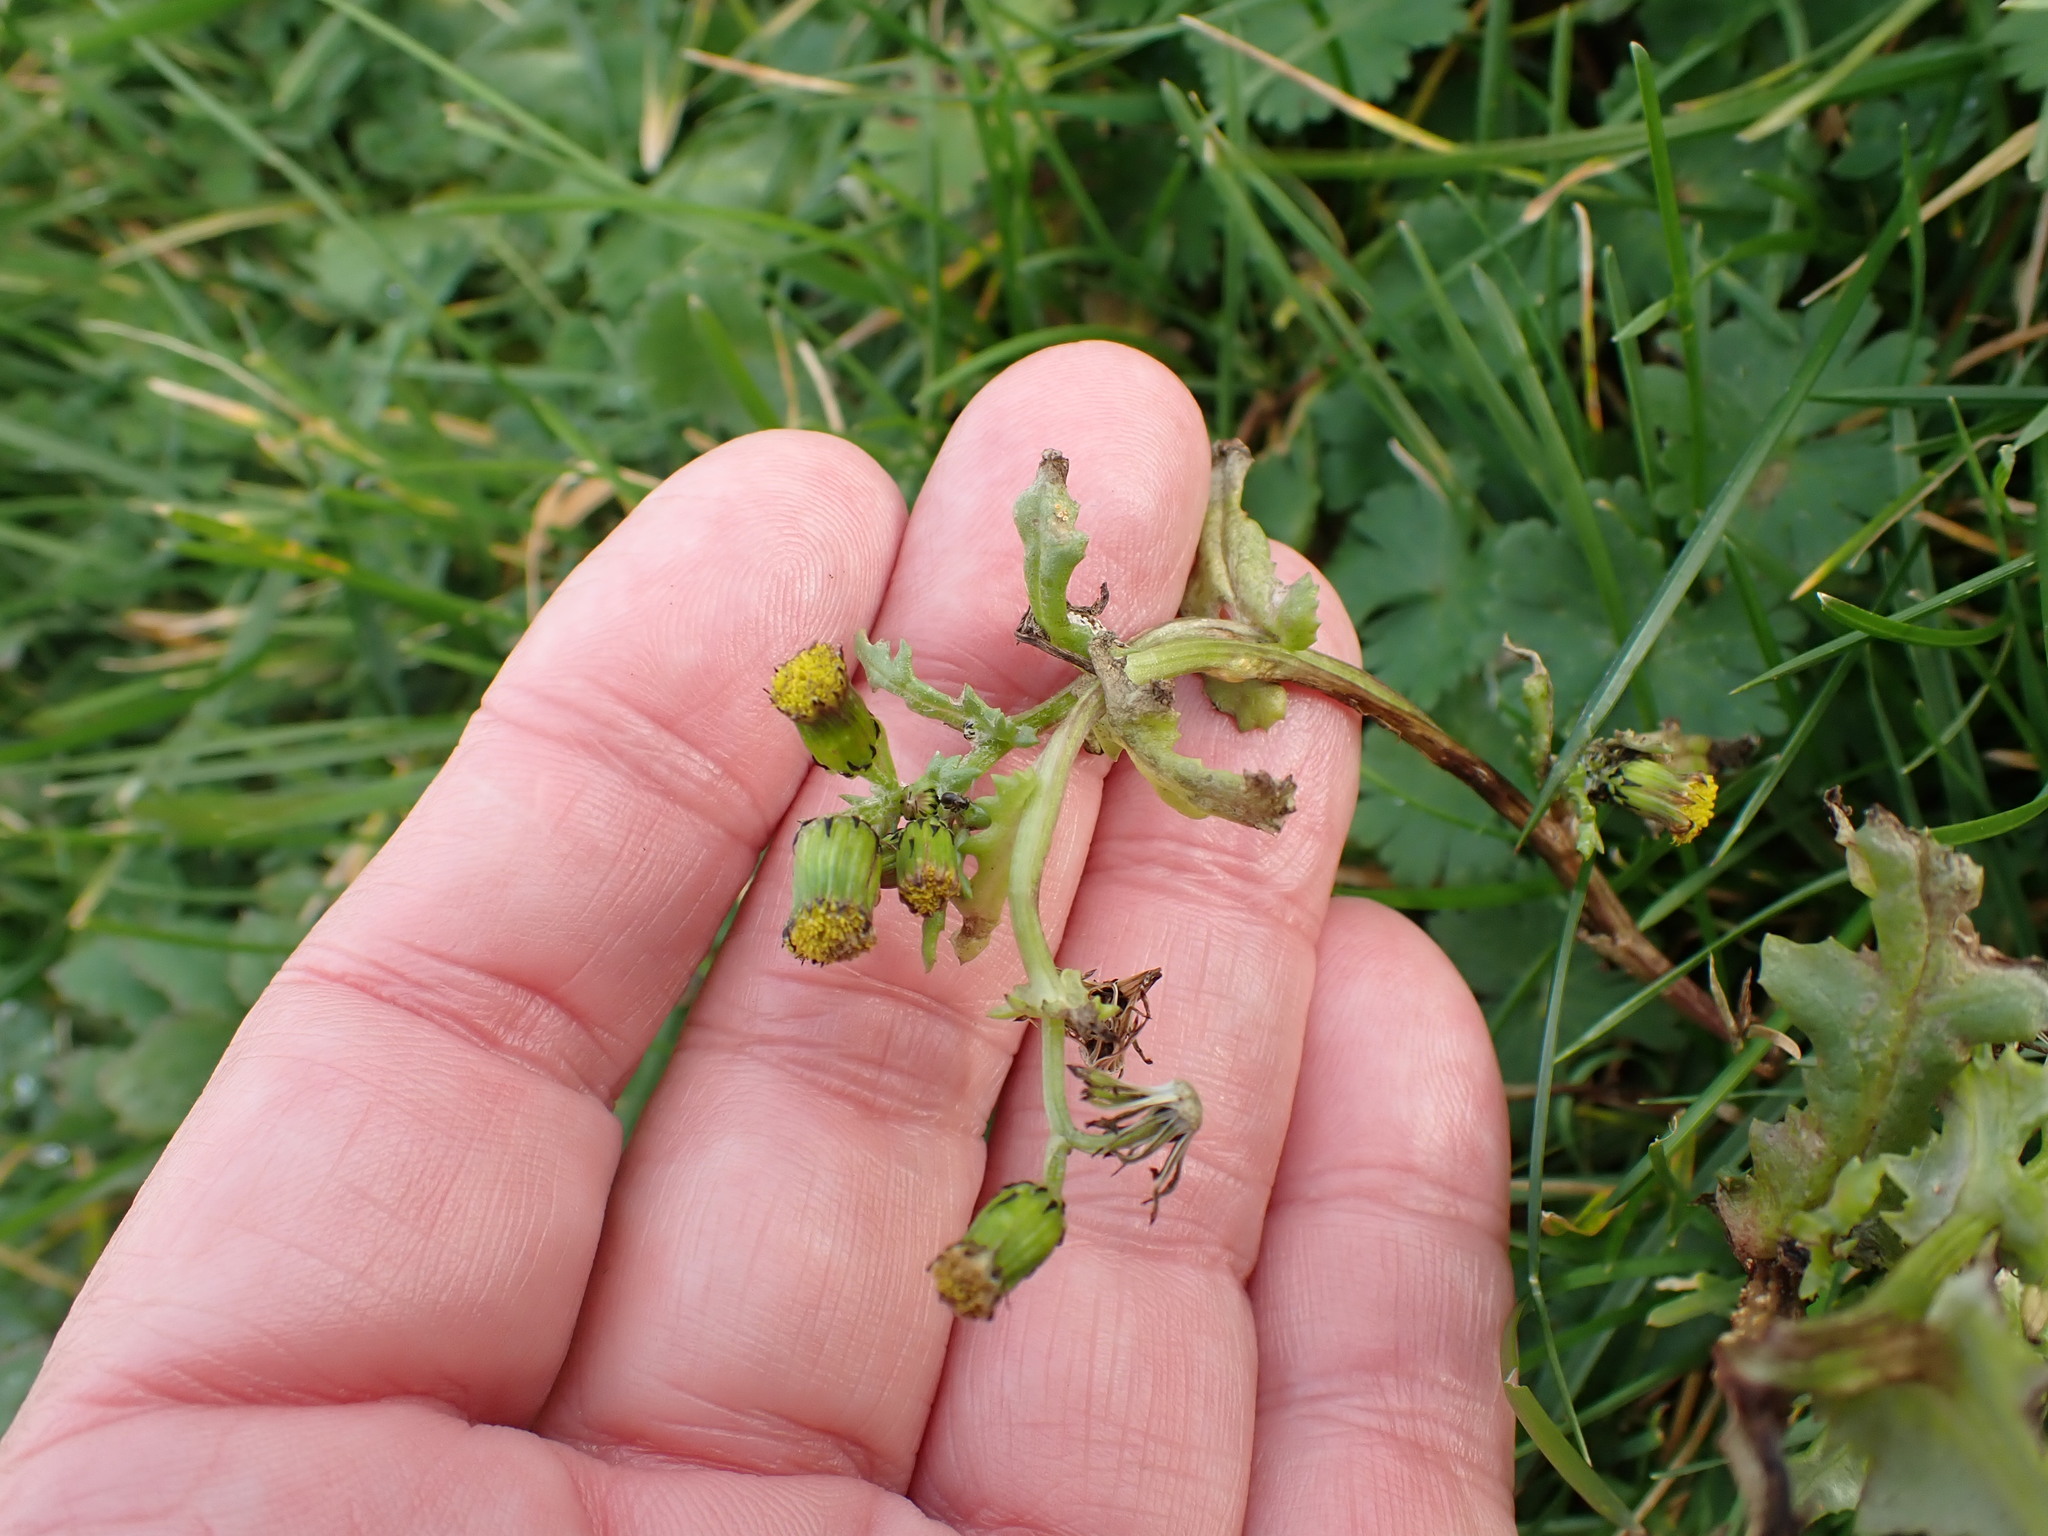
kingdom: Plantae
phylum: Tracheophyta
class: Magnoliopsida
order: Asterales
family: Asteraceae
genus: Senecio
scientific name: Senecio vulgaris
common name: Old-man-in-the-spring
